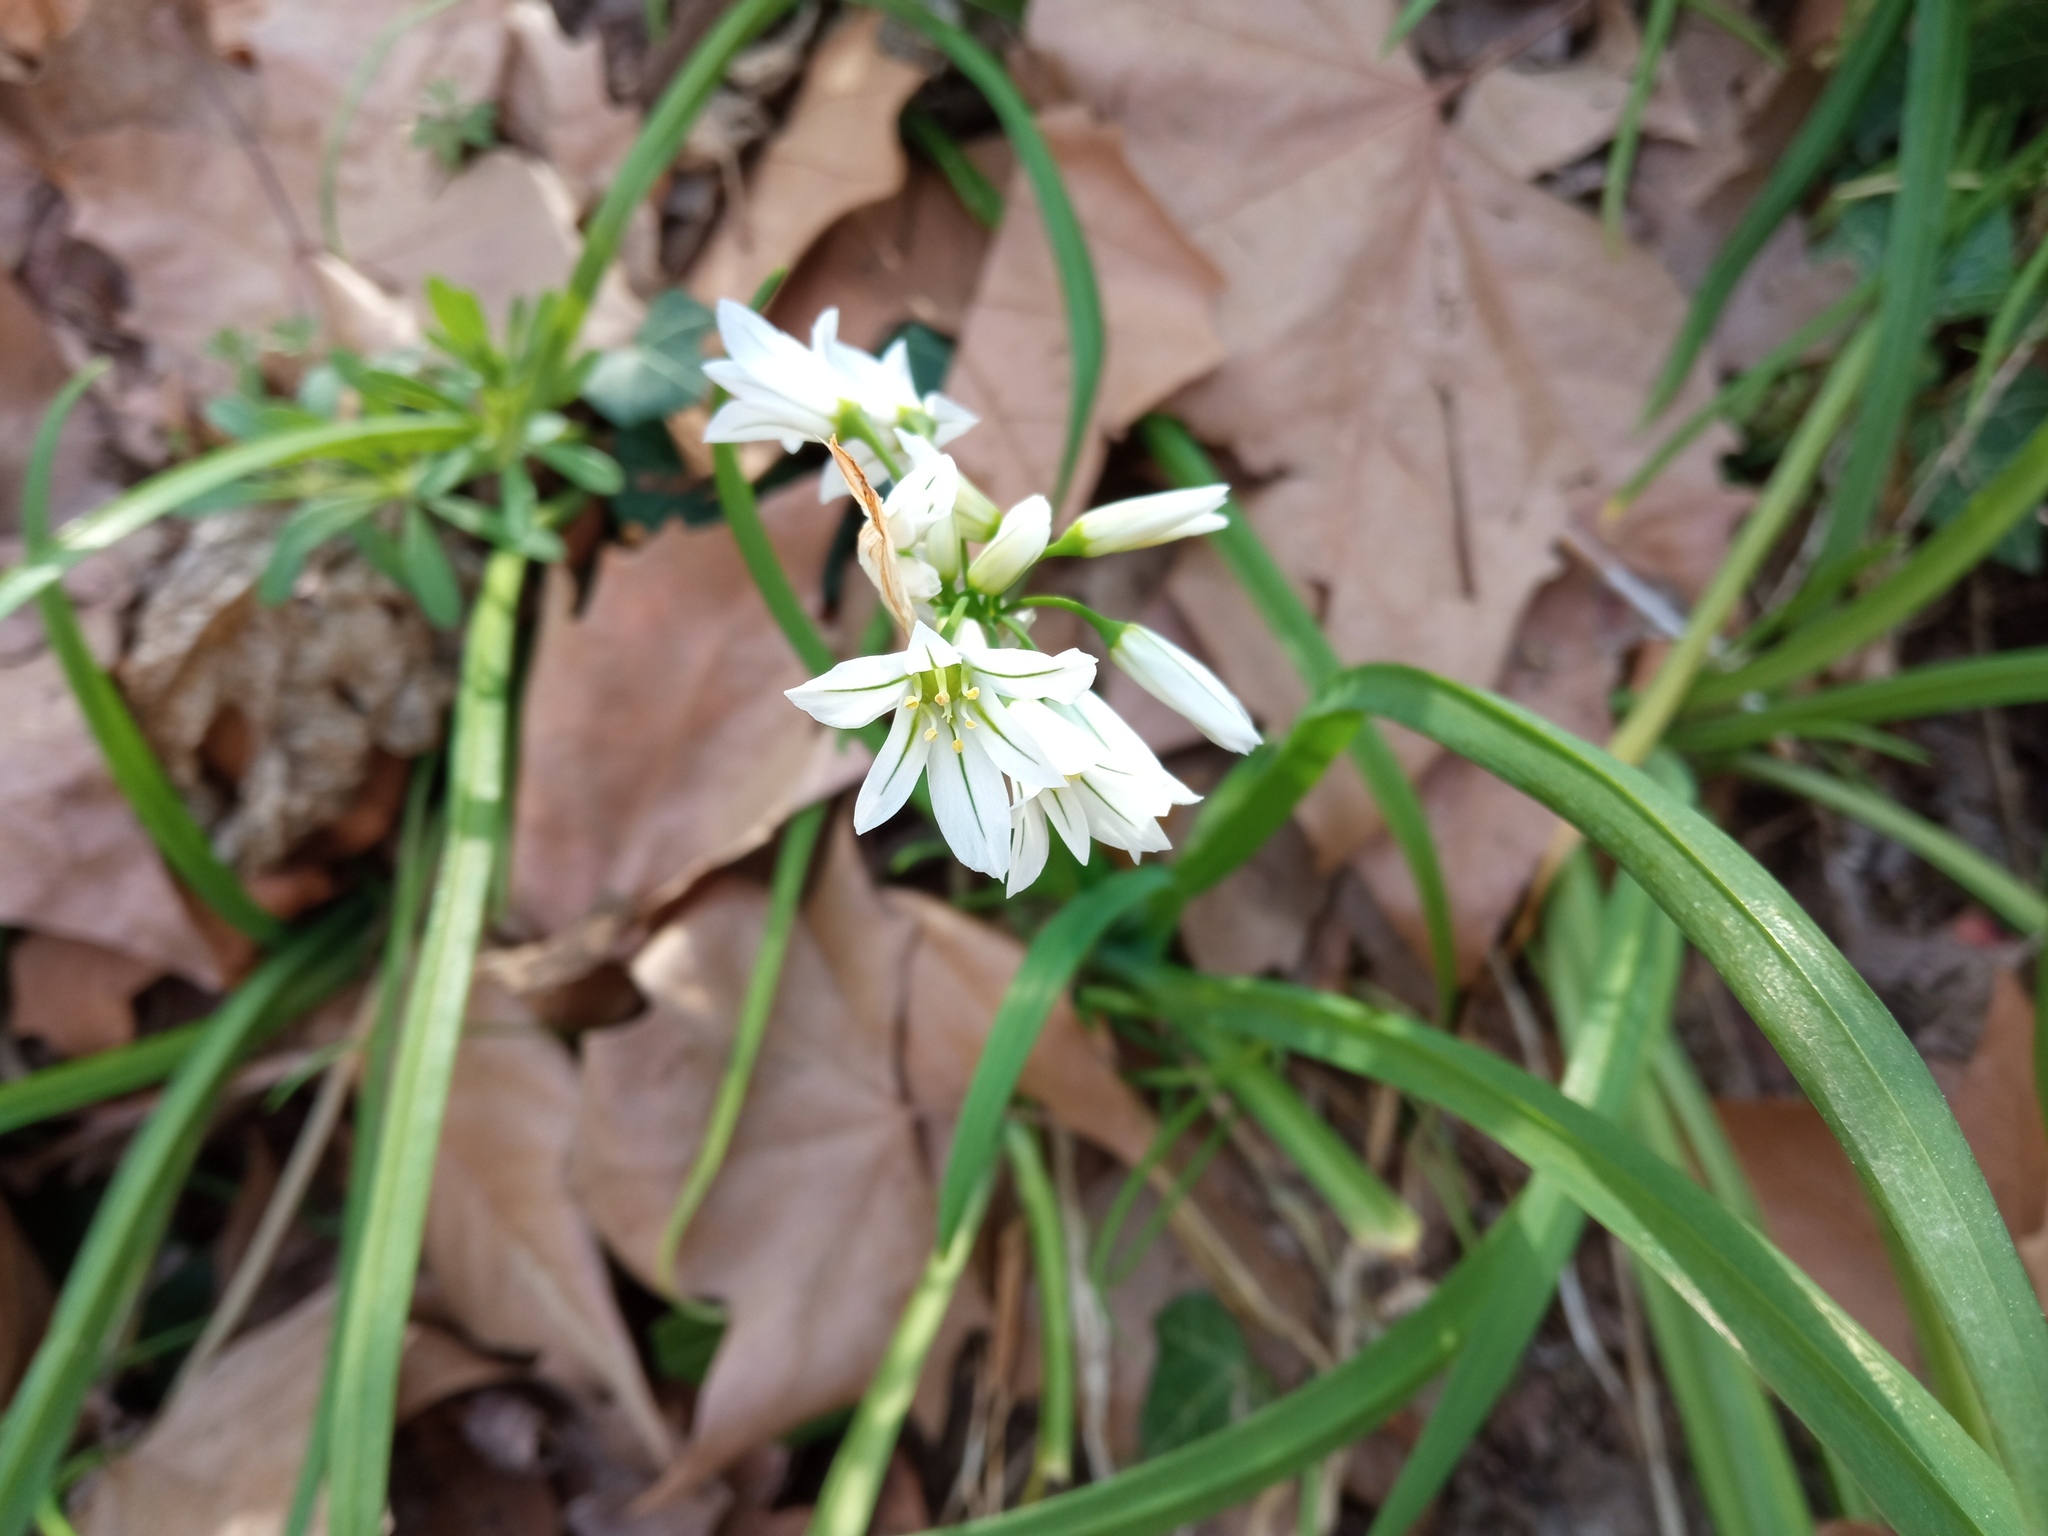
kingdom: Plantae
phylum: Tracheophyta
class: Liliopsida
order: Asparagales
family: Amaryllidaceae
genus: Allium
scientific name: Allium triquetrum
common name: Three-cornered garlic
